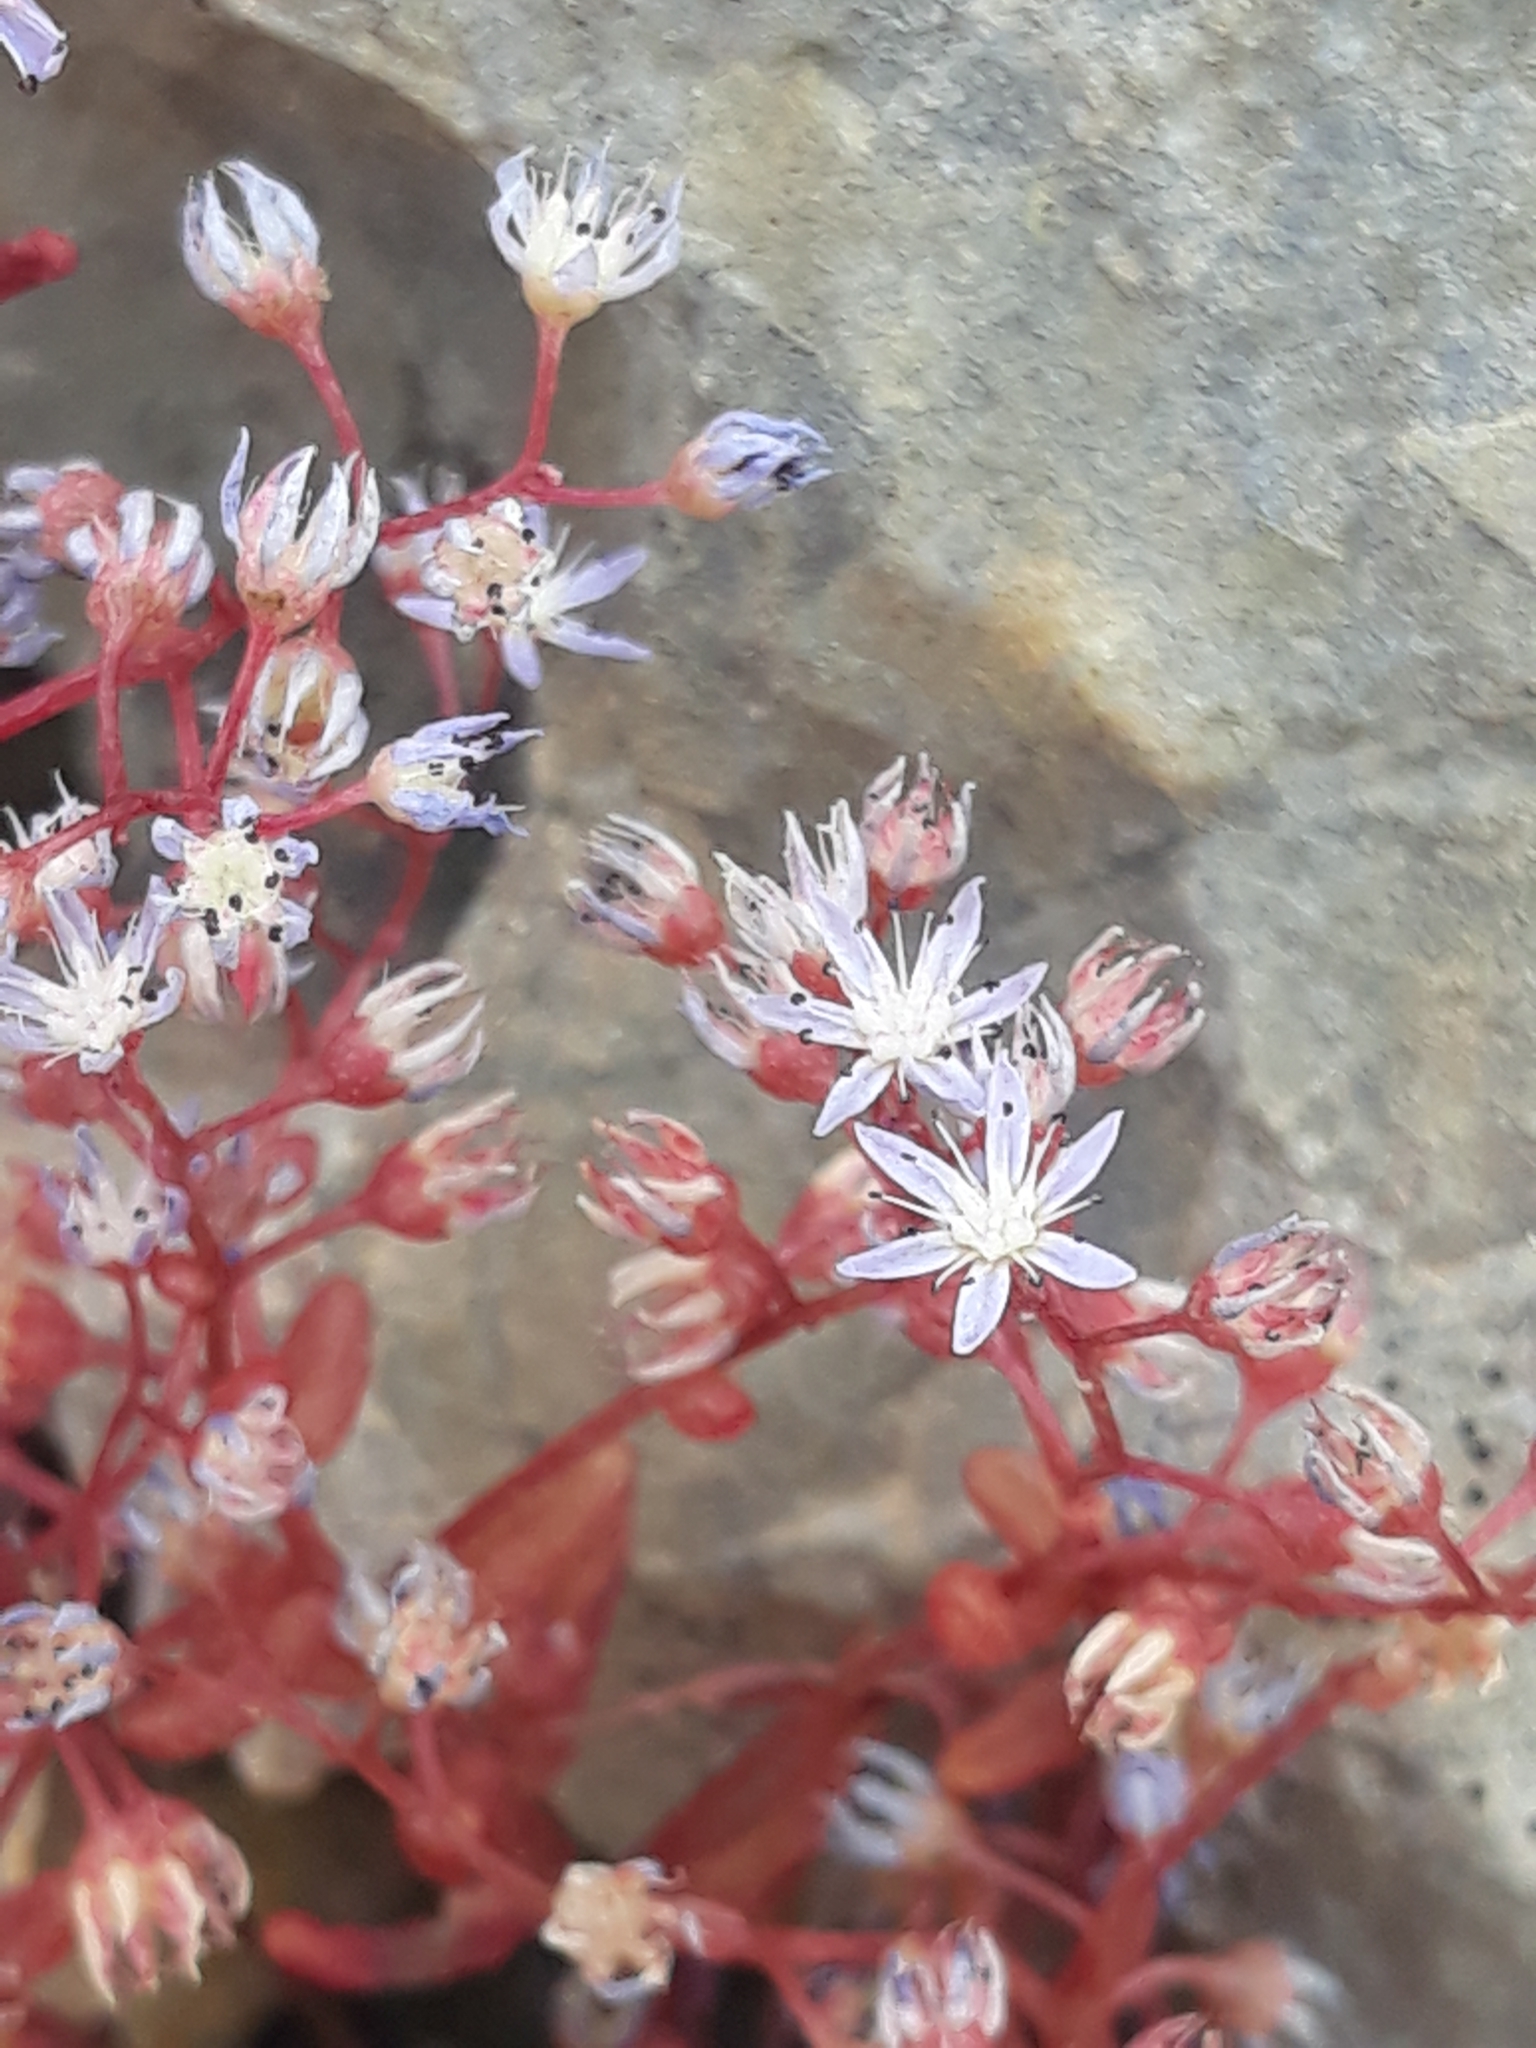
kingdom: Plantae
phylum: Tracheophyta
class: Magnoliopsida
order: Saxifragales
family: Crassulaceae
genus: Sedum
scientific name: Sedum caeruleum
